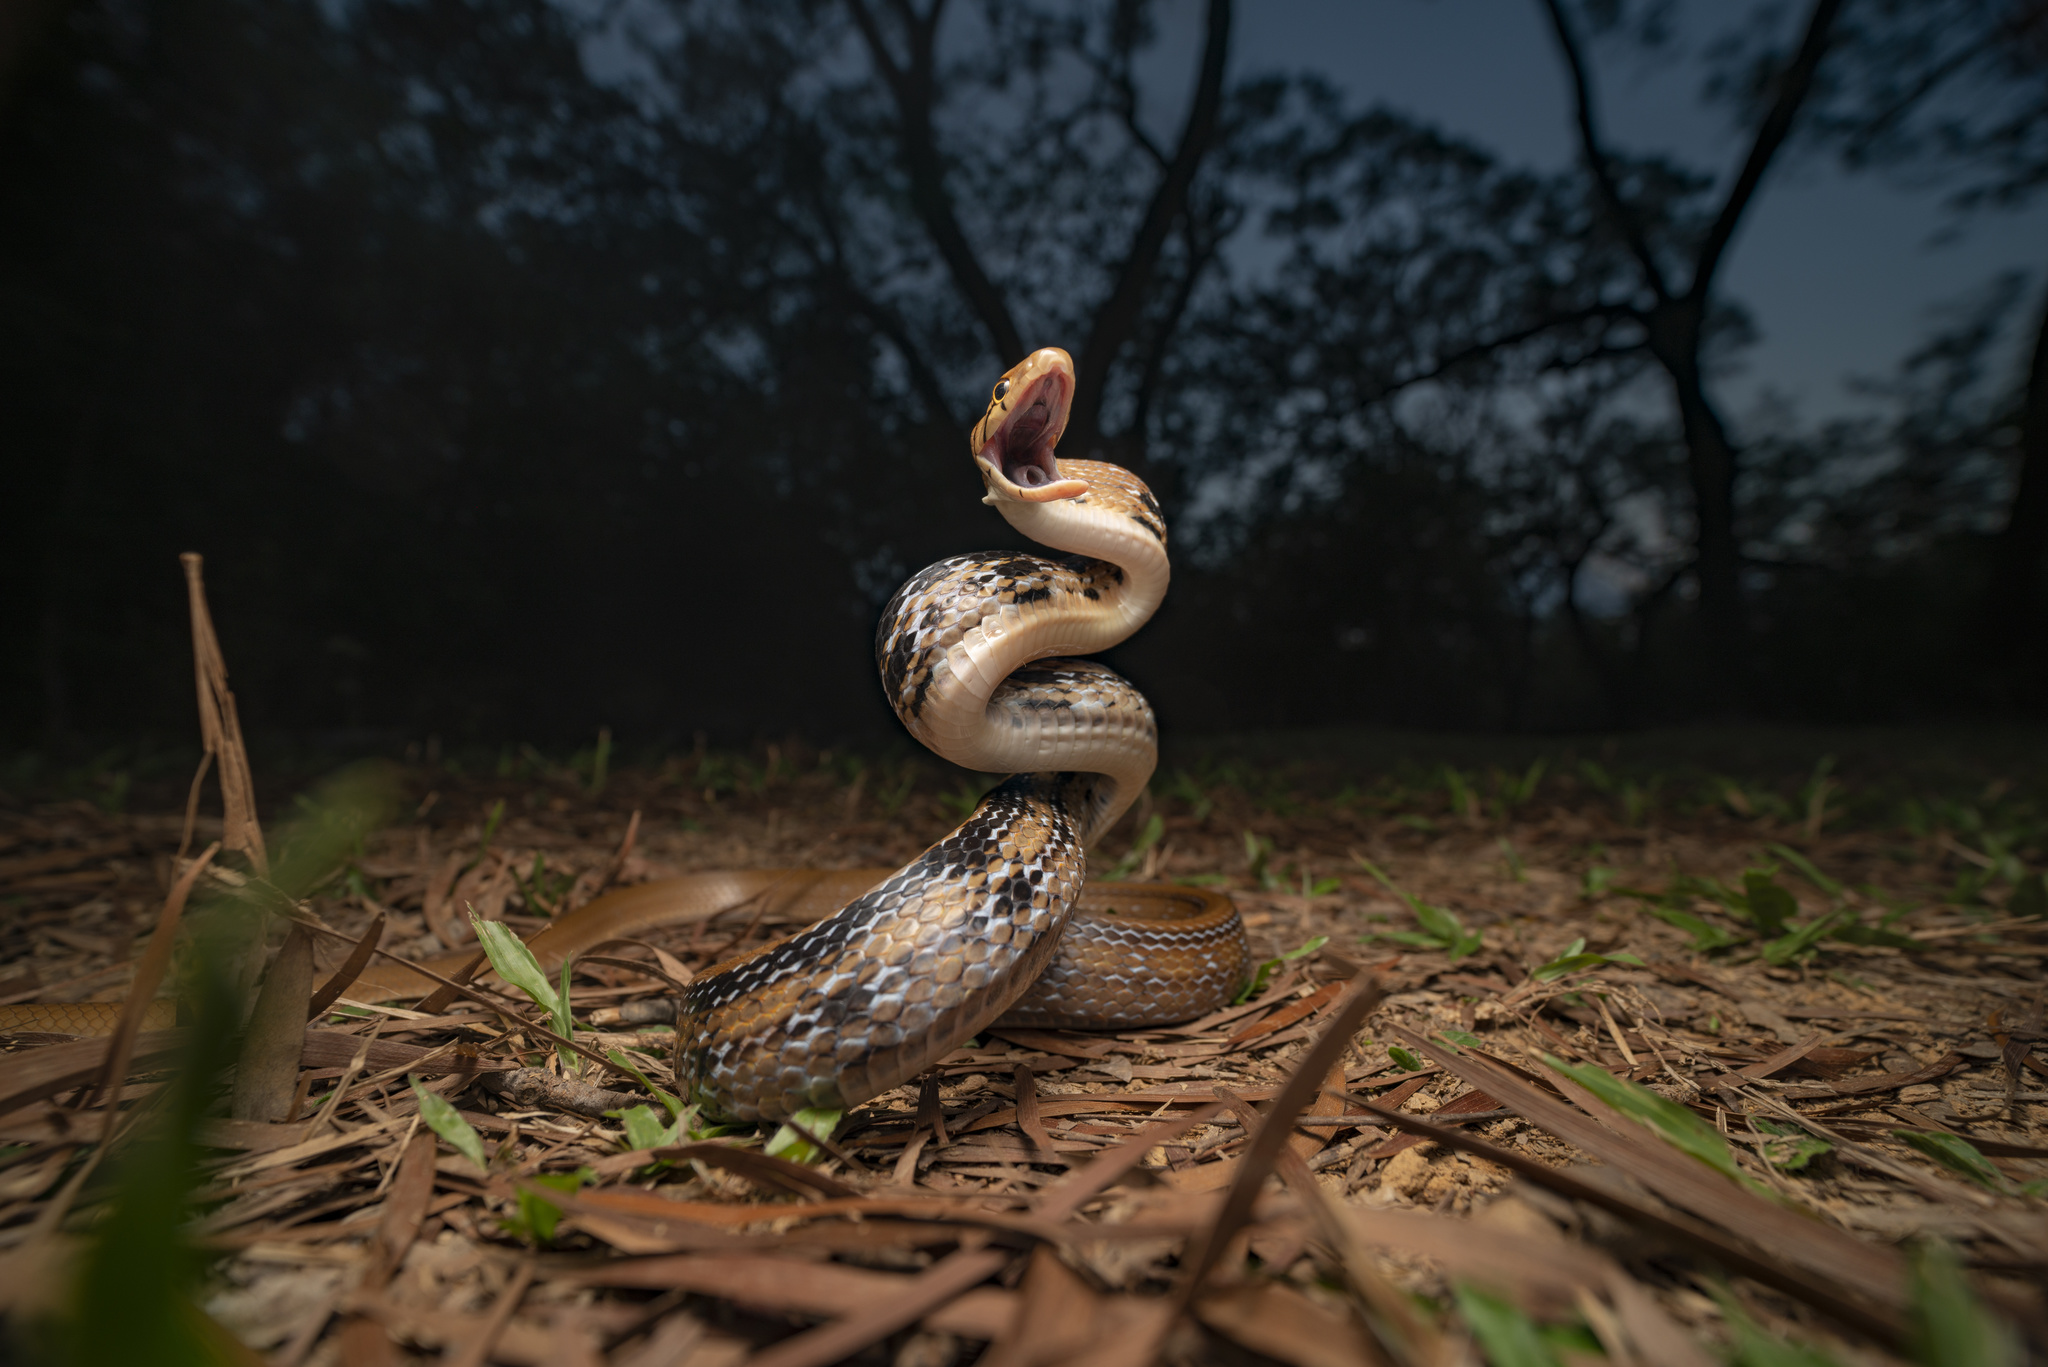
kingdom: Animalia
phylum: Chordata
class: Squamata
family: Colubridae
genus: Coelognathus
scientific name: Coelognathus radiatus
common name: Copperhead rat snake
